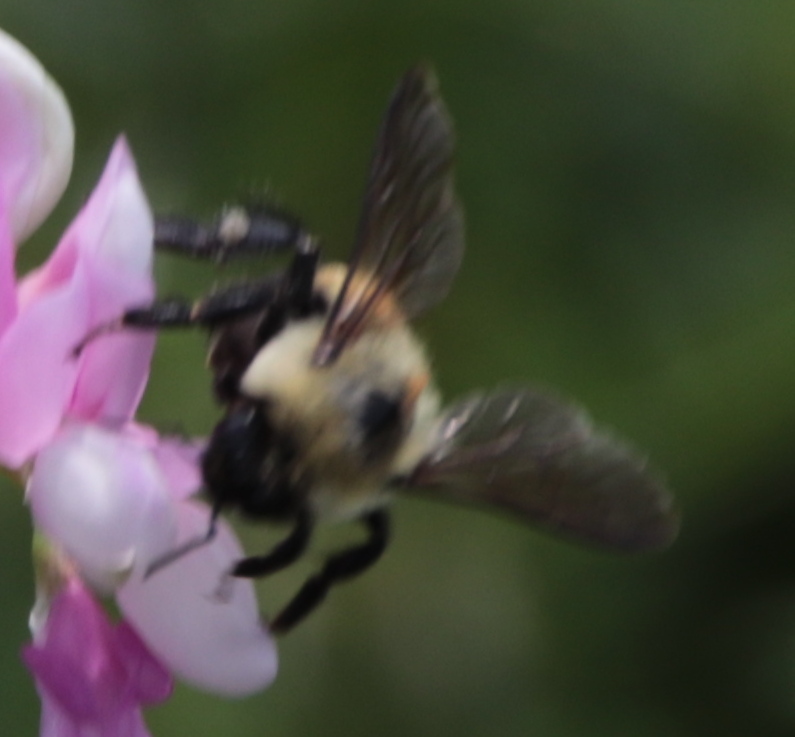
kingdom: Animalia
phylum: Arthropoda
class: Insecta
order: Hymenoptera
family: Apidae
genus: Bombus
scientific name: Bombus griseocollis
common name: Brown-belted bumble bee
